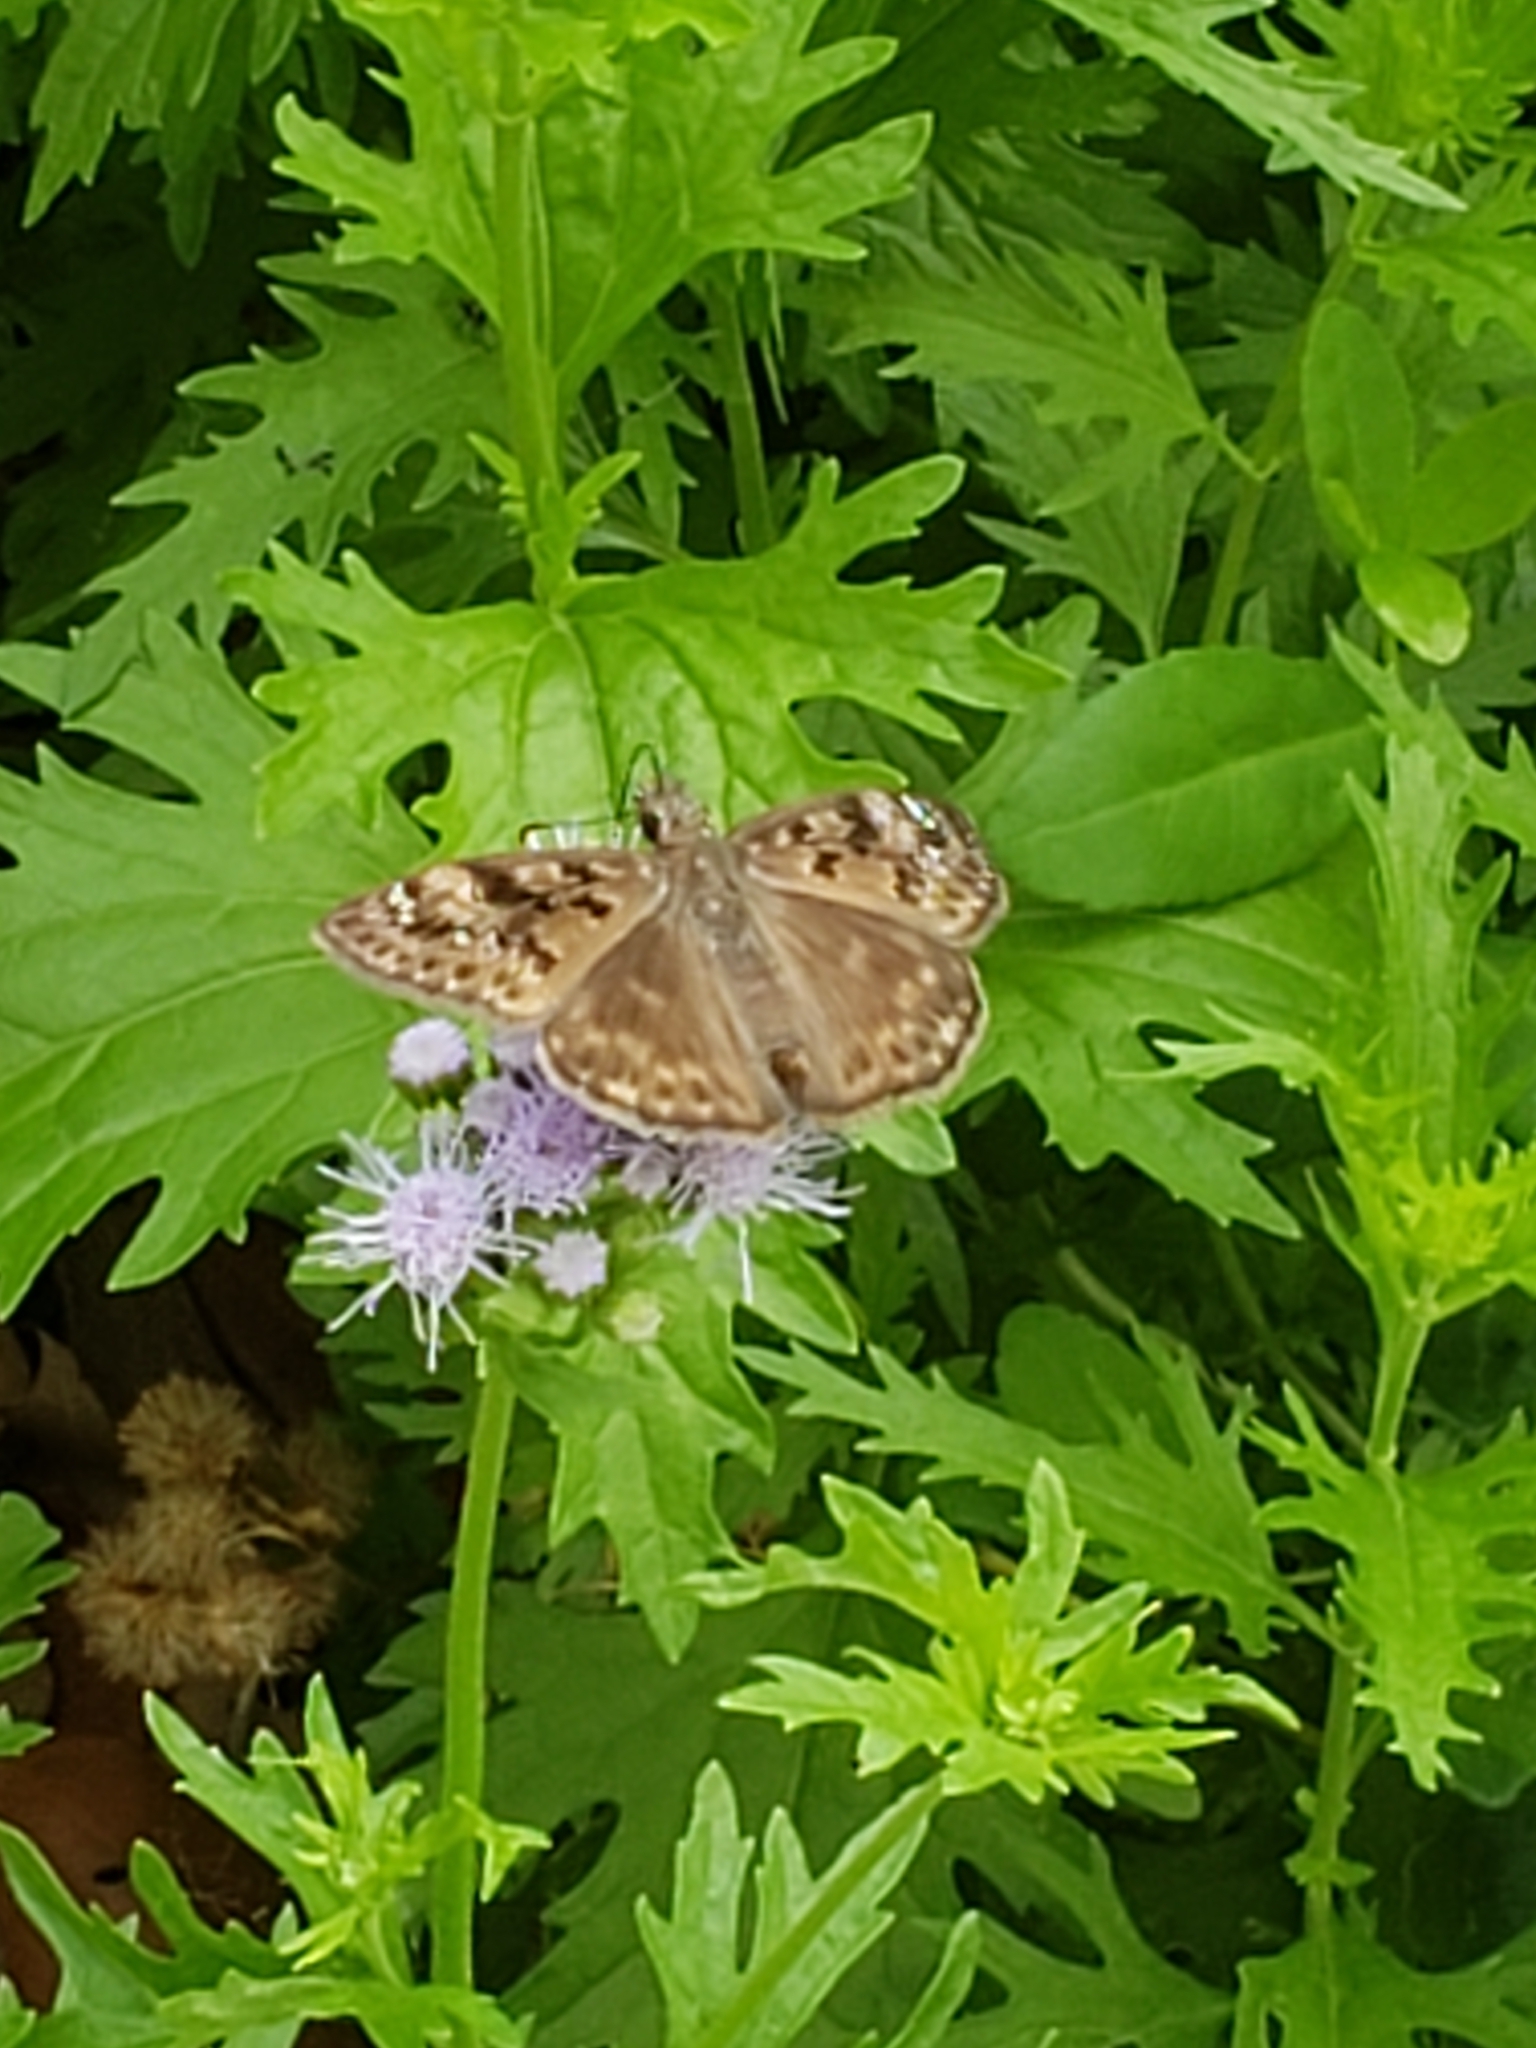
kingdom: Animalia
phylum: Arthropoda
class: Insecta
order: Lepidoptera
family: Hesperiidae
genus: Erynnis
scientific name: Erynnis horatius
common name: Horace's duskywing
